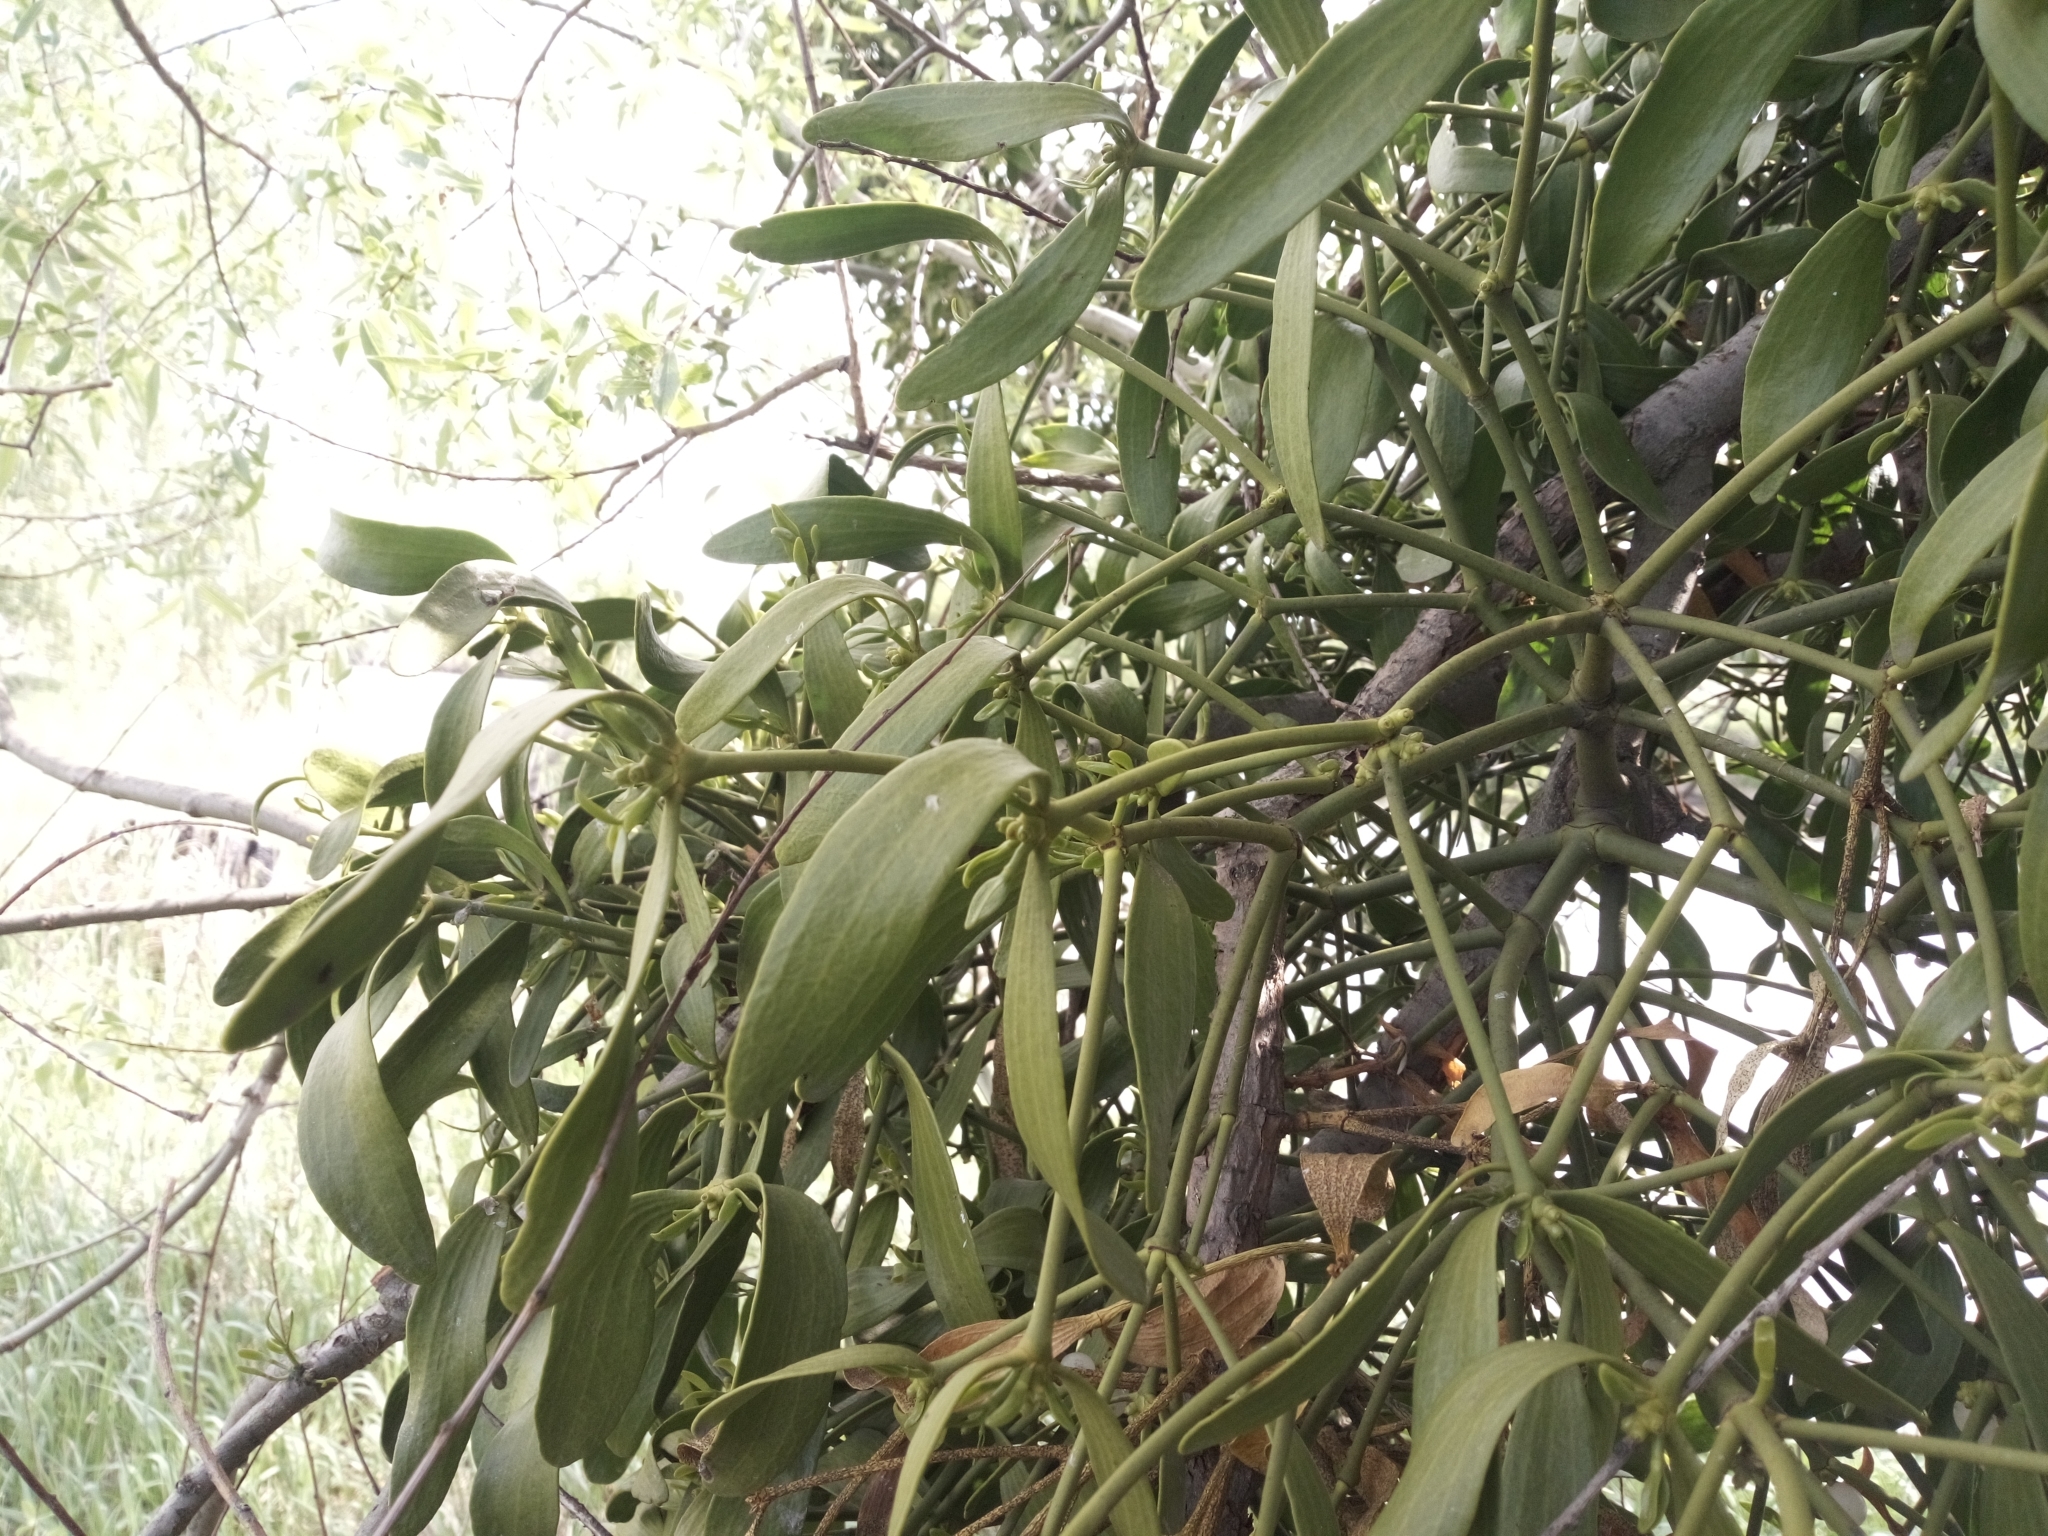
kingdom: Plantae
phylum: Tracheophyta
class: Magnoliopsida
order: Santalales
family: Viscaceae
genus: Viscum
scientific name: Viscum album
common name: Mistletoe
